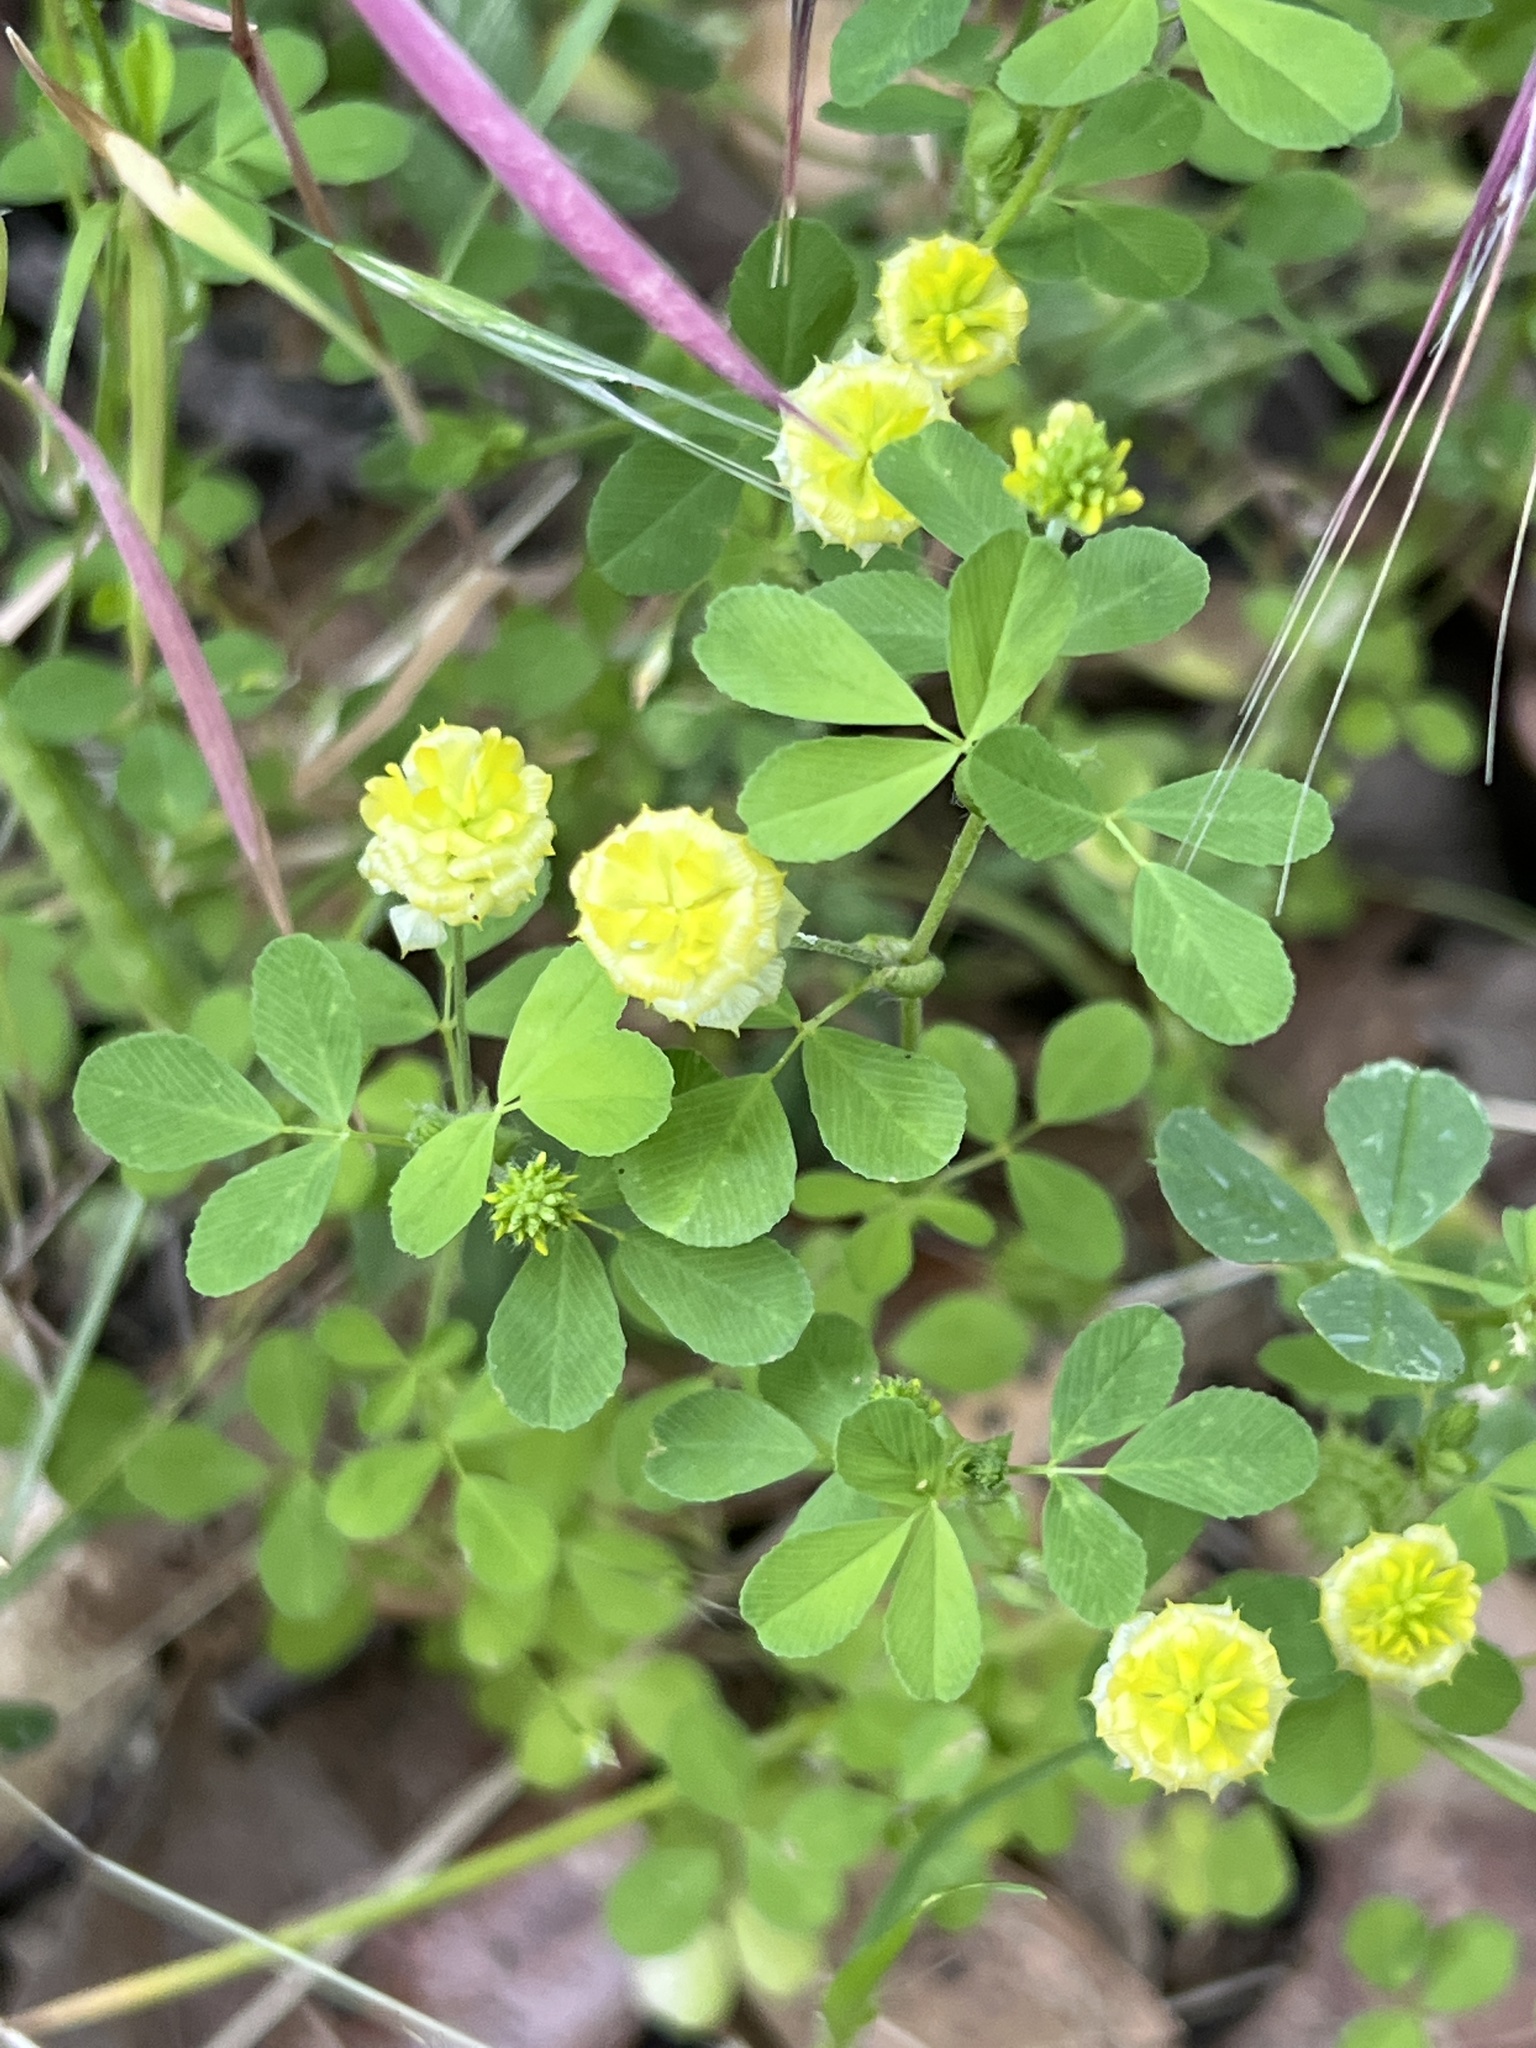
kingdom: Plantae
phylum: Tracheophyta
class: Magnoliopsida
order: Fabales
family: Fabaceae
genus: Trifolium
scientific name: Trifolium campestre
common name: Field clover
